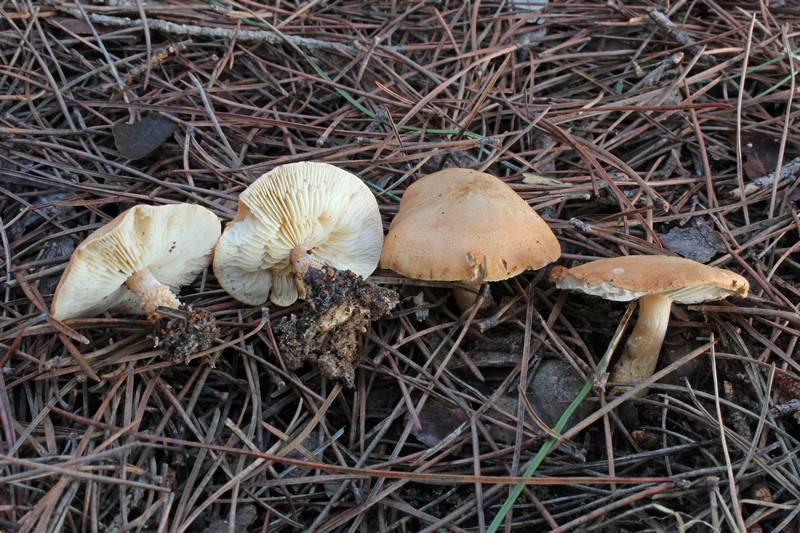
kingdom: Fungi
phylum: Basidiomycota
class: Agaricomycetes
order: Agaricales
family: Agaricaceae
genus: Cystodermella
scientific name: Cystodermella granulosa
